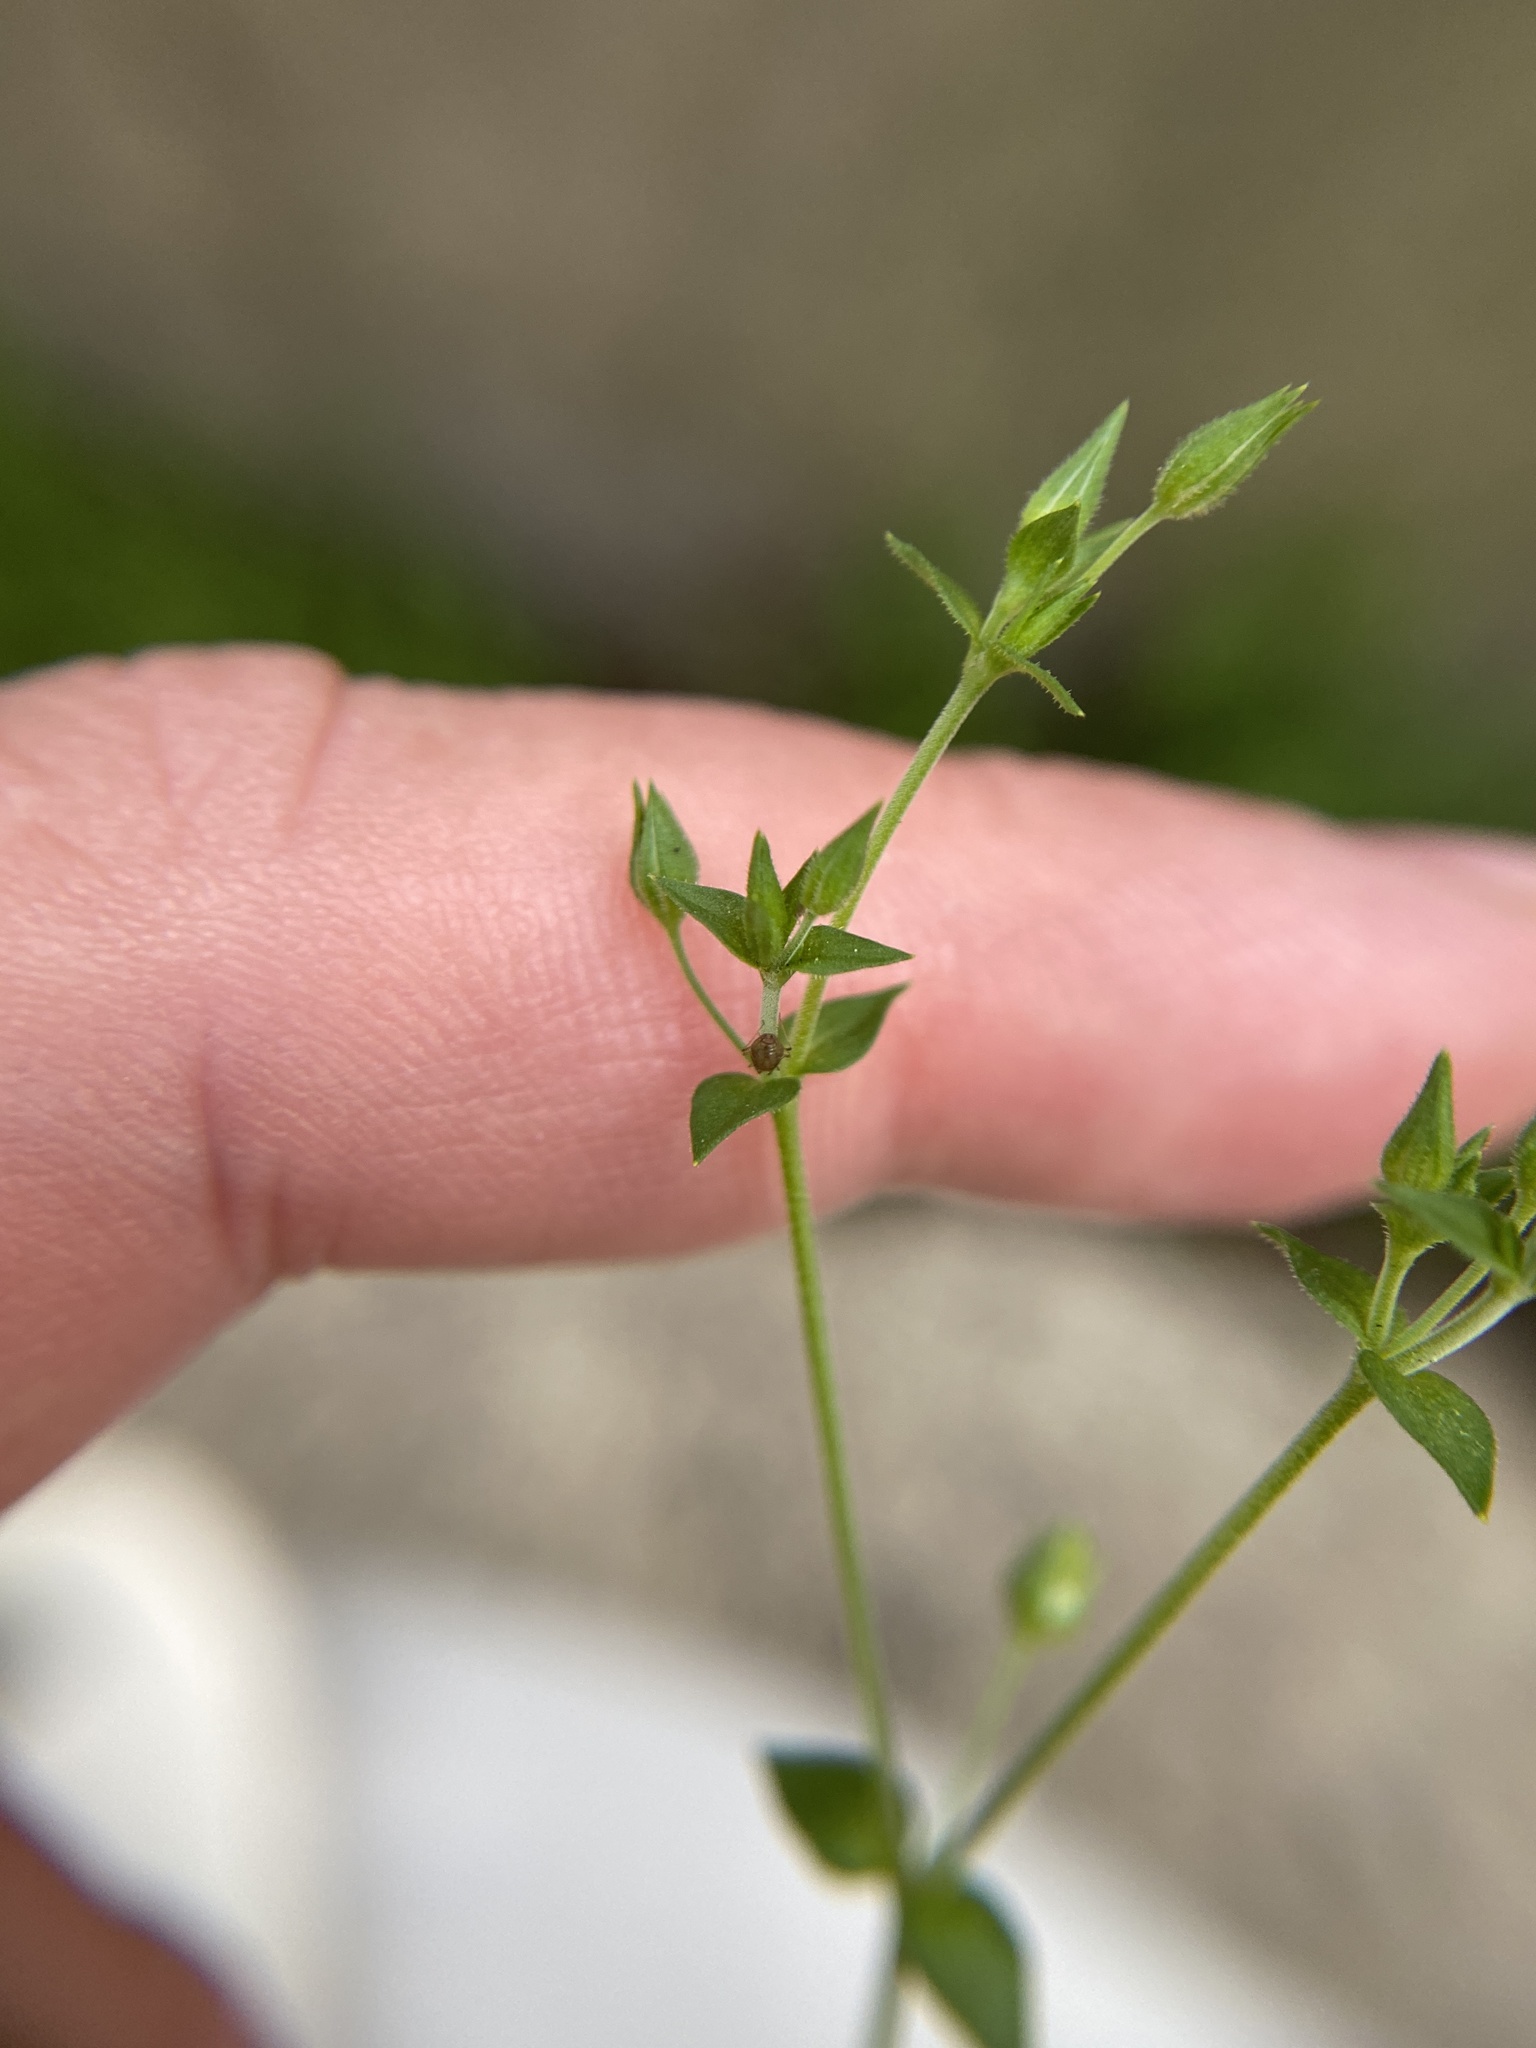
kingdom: Plantae
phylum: Tracheophyta
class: Magnoliopsida
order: Caryophyllales
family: Caryophyllaceae
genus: Arenaria
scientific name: Arenaria serpyllifolia
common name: Thyme-leaved sandwort
